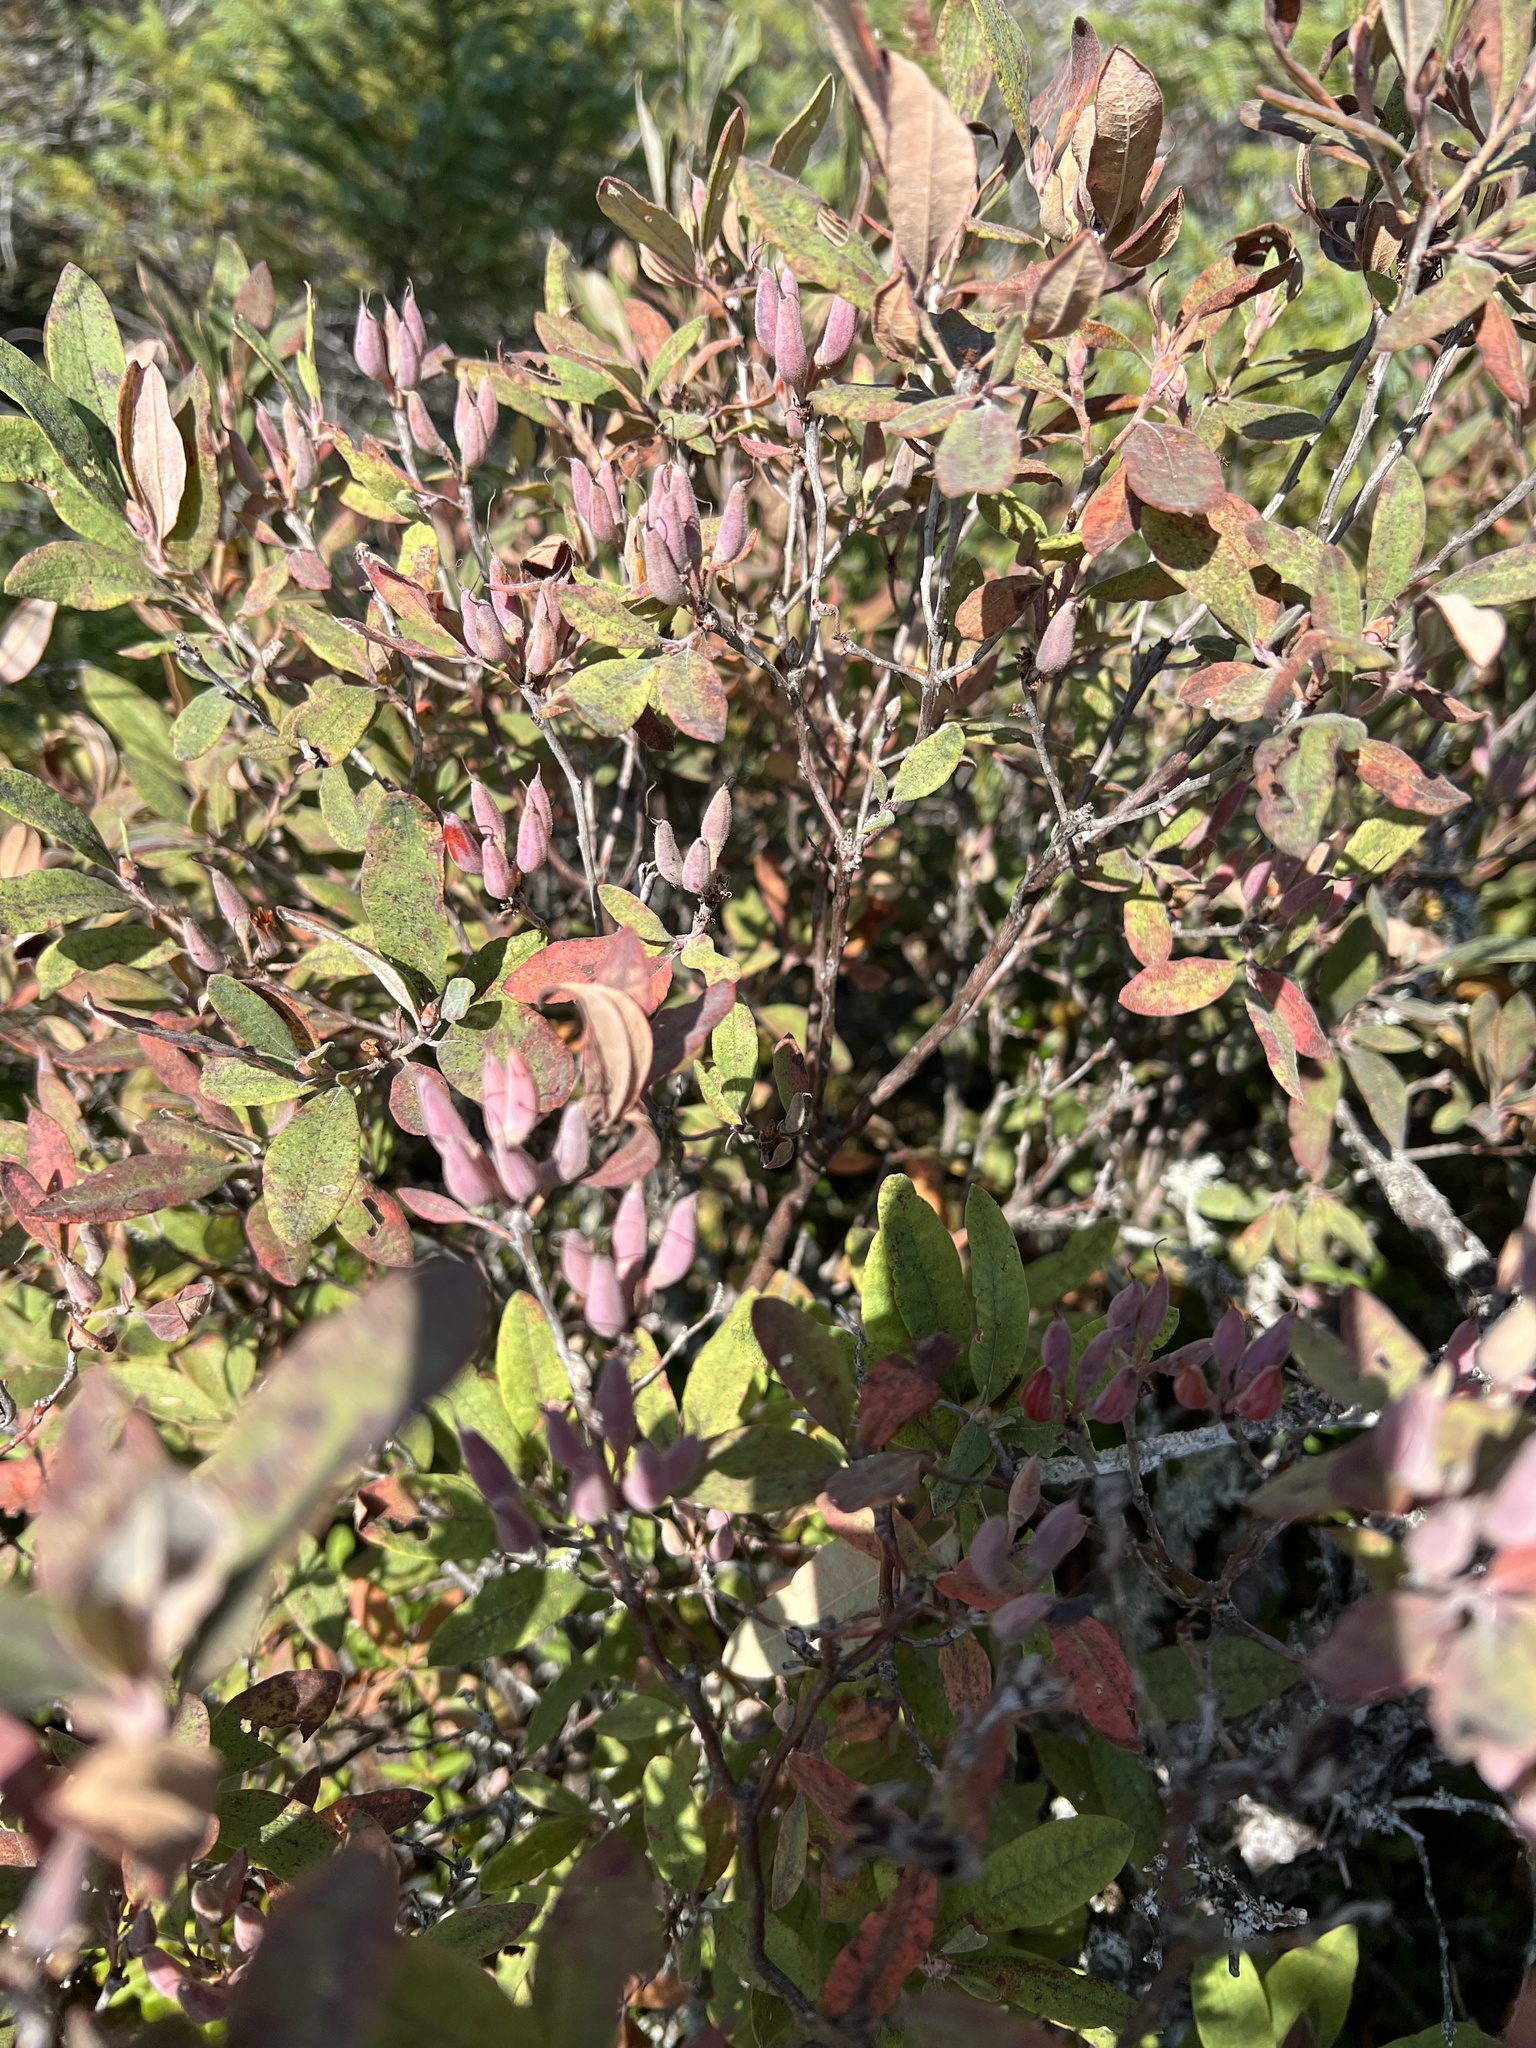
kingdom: Plantae
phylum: Tracheophyta
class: Magnoliopsida
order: Ericales
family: Ericaceae
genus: Rhododendron
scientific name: Rhododendron canadense
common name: Rhodora
